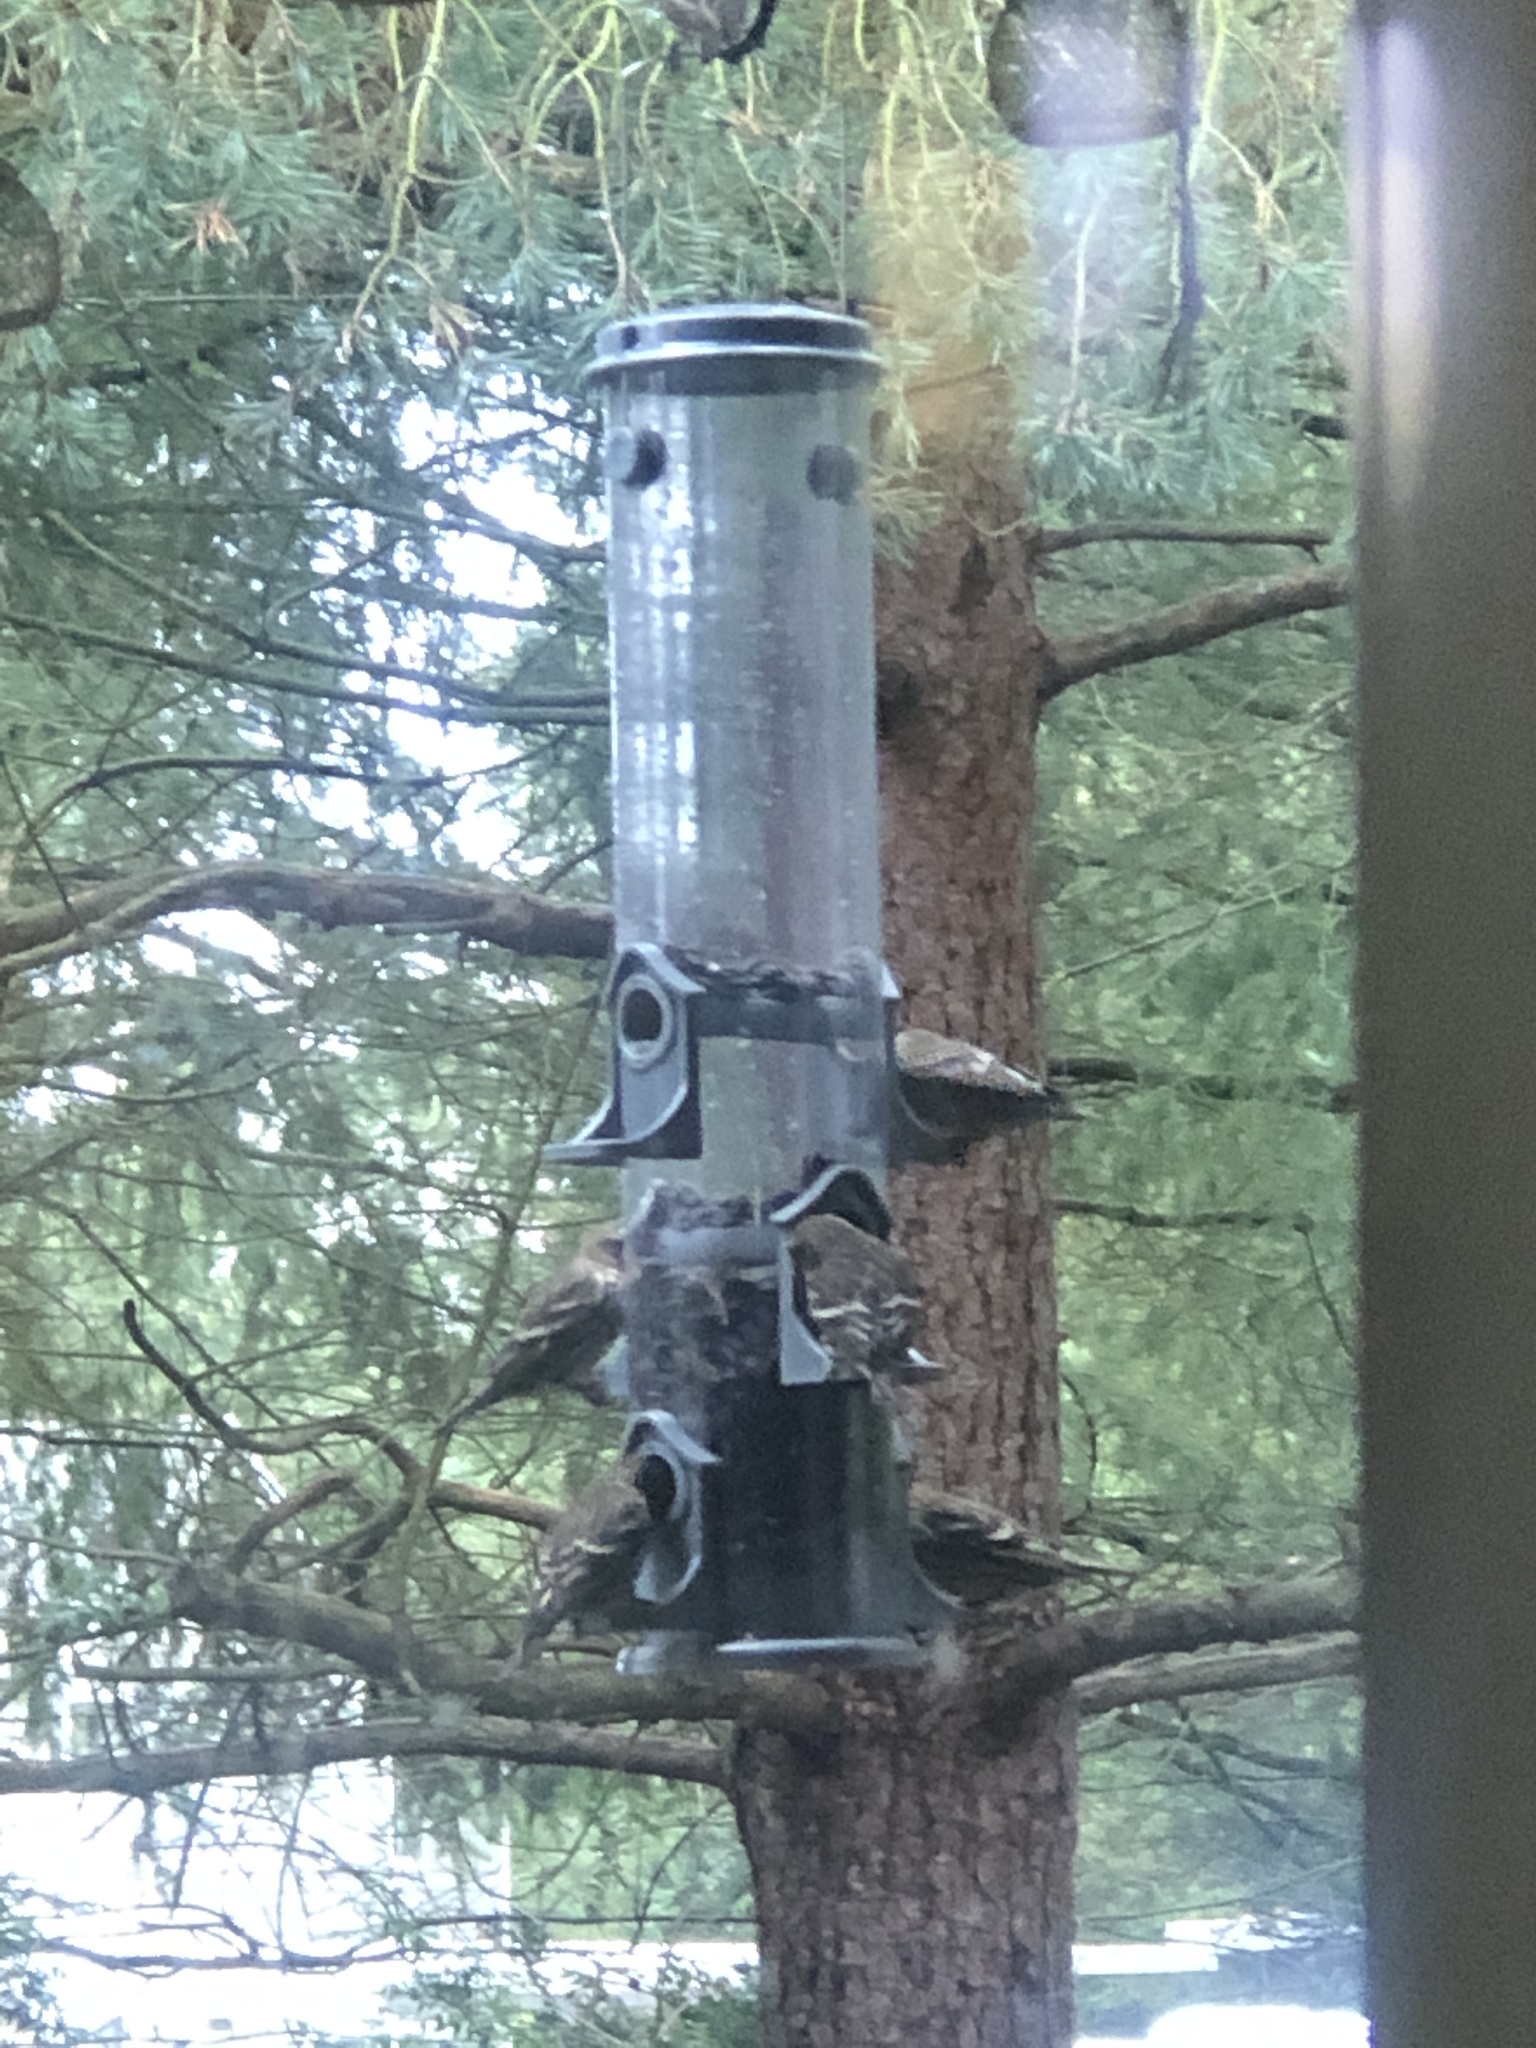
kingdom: Animalia
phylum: Chordata
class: Aves
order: Passeriformes
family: Fringillidae
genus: Spinus
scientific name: Spinus pinus
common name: Pine siskin
